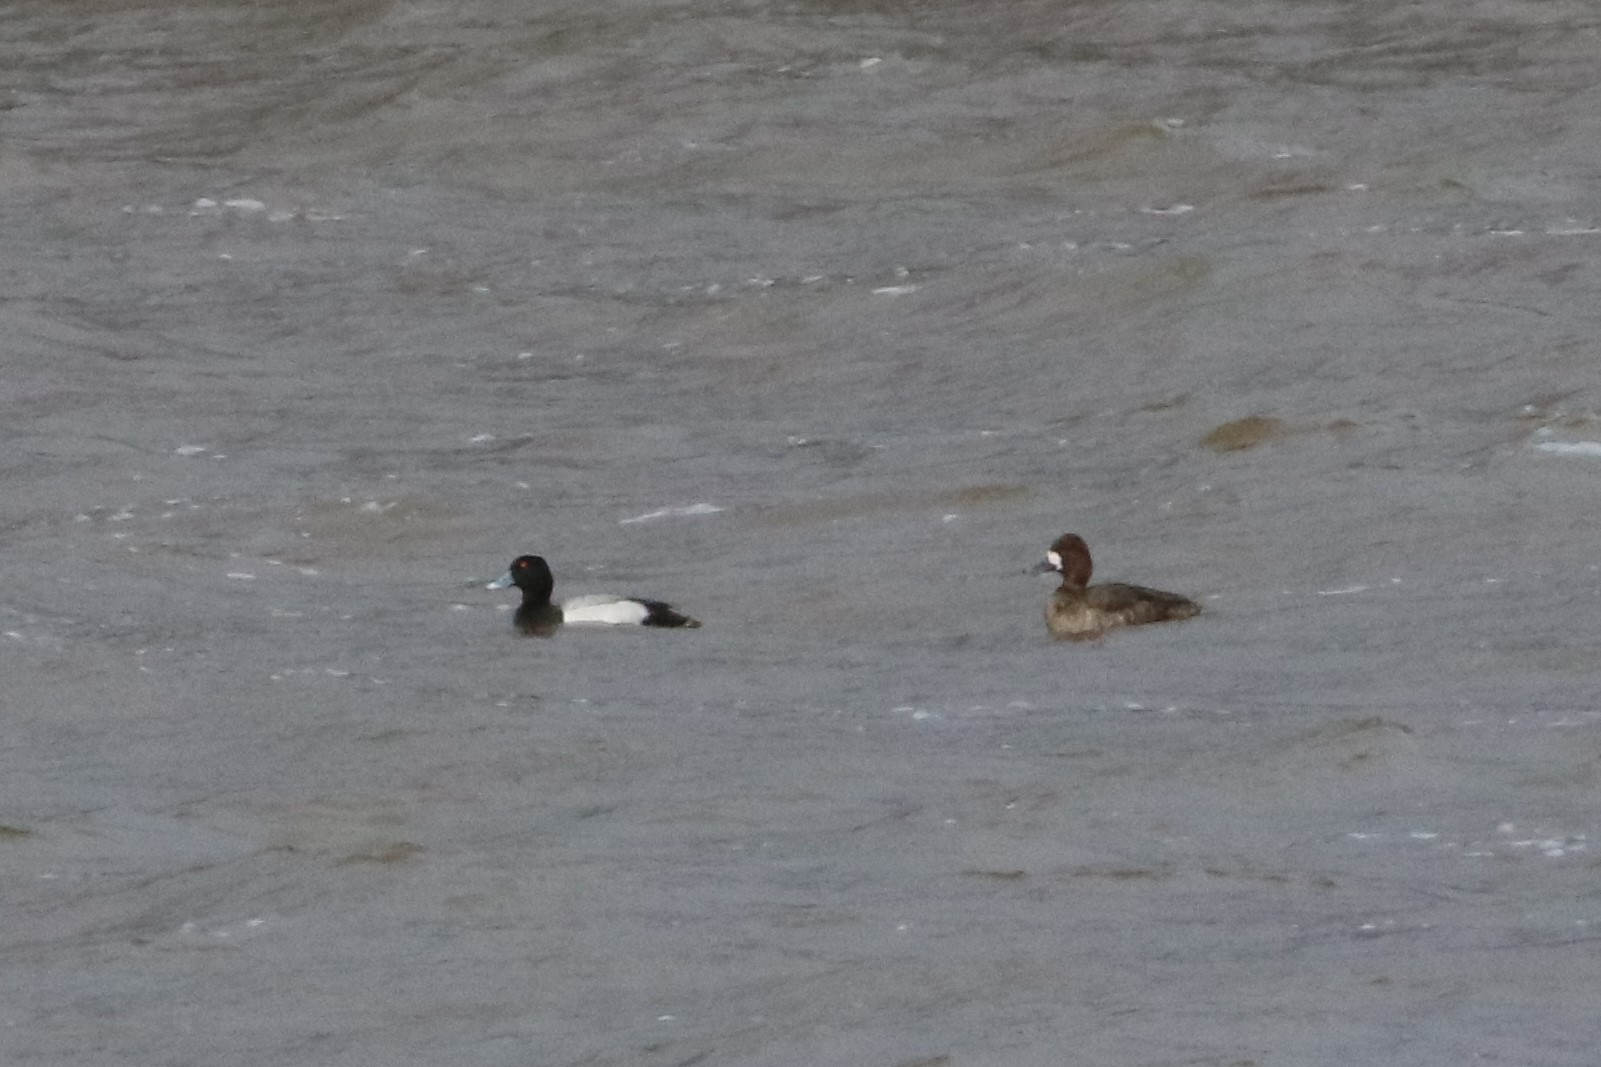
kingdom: Animalia
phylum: Chordata
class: Aves
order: Anseriformes
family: Anatidae
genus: Aythya
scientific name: Aythya affinis
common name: Lesser scaup
